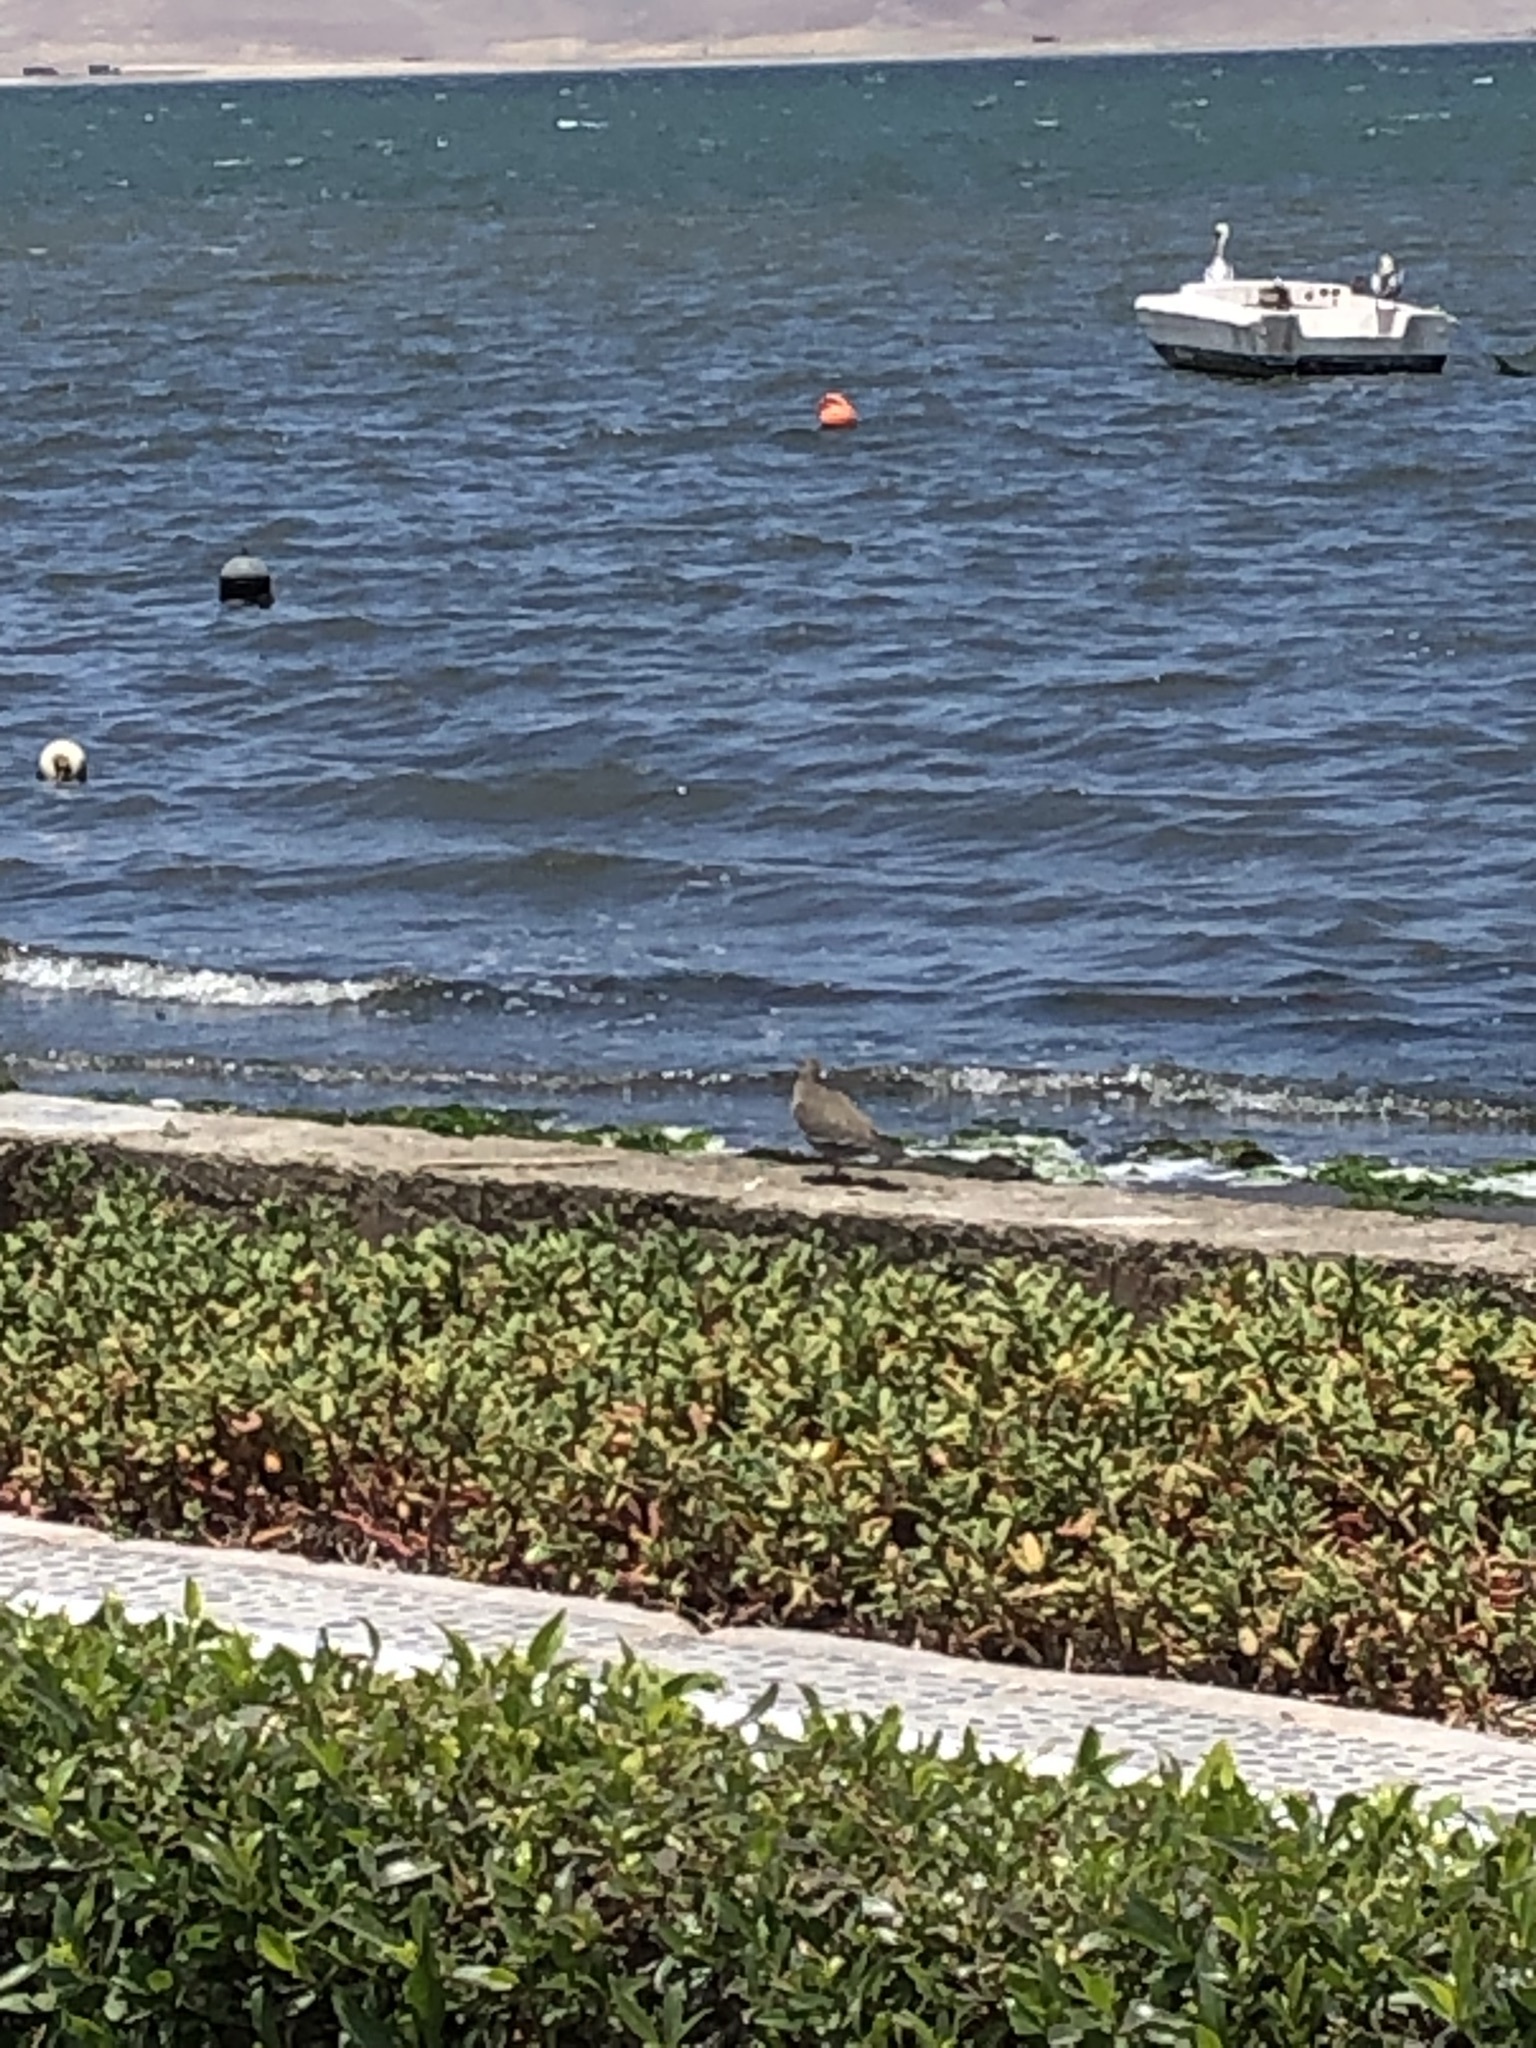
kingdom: Animalia
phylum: Chordata
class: Aves
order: Columbiformes
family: Columbidae
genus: Zenaida
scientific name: Zenaida meloda
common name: West peruvian dove
